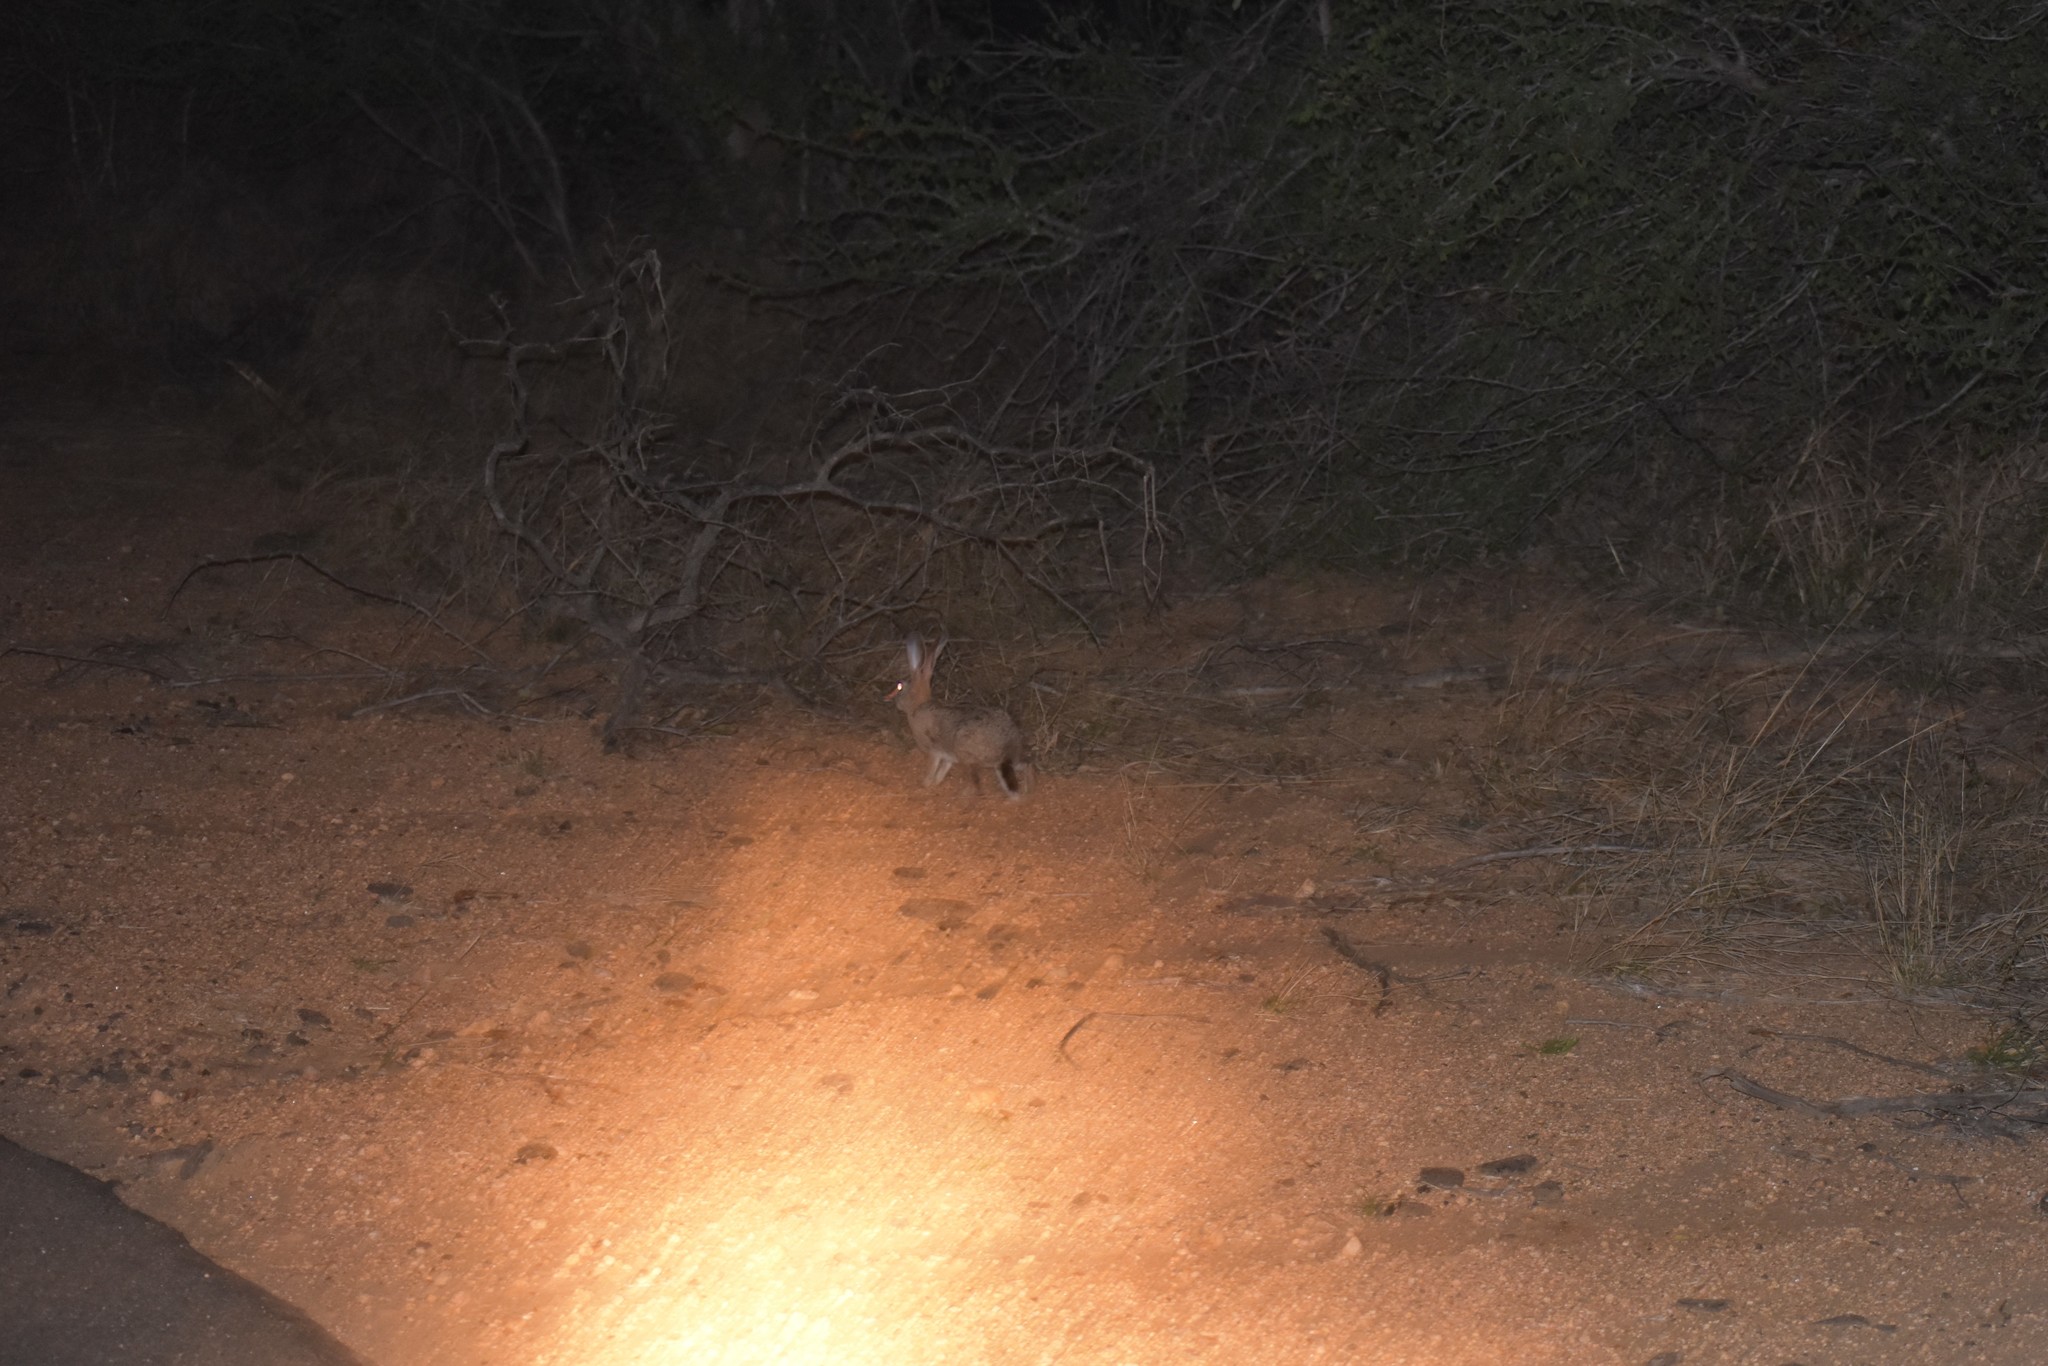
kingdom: Animalia
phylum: Chordata
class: Mammalia
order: Lagomorpha
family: Leporidae
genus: Lepus
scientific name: Lepus saxatilis
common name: Scrub hare
